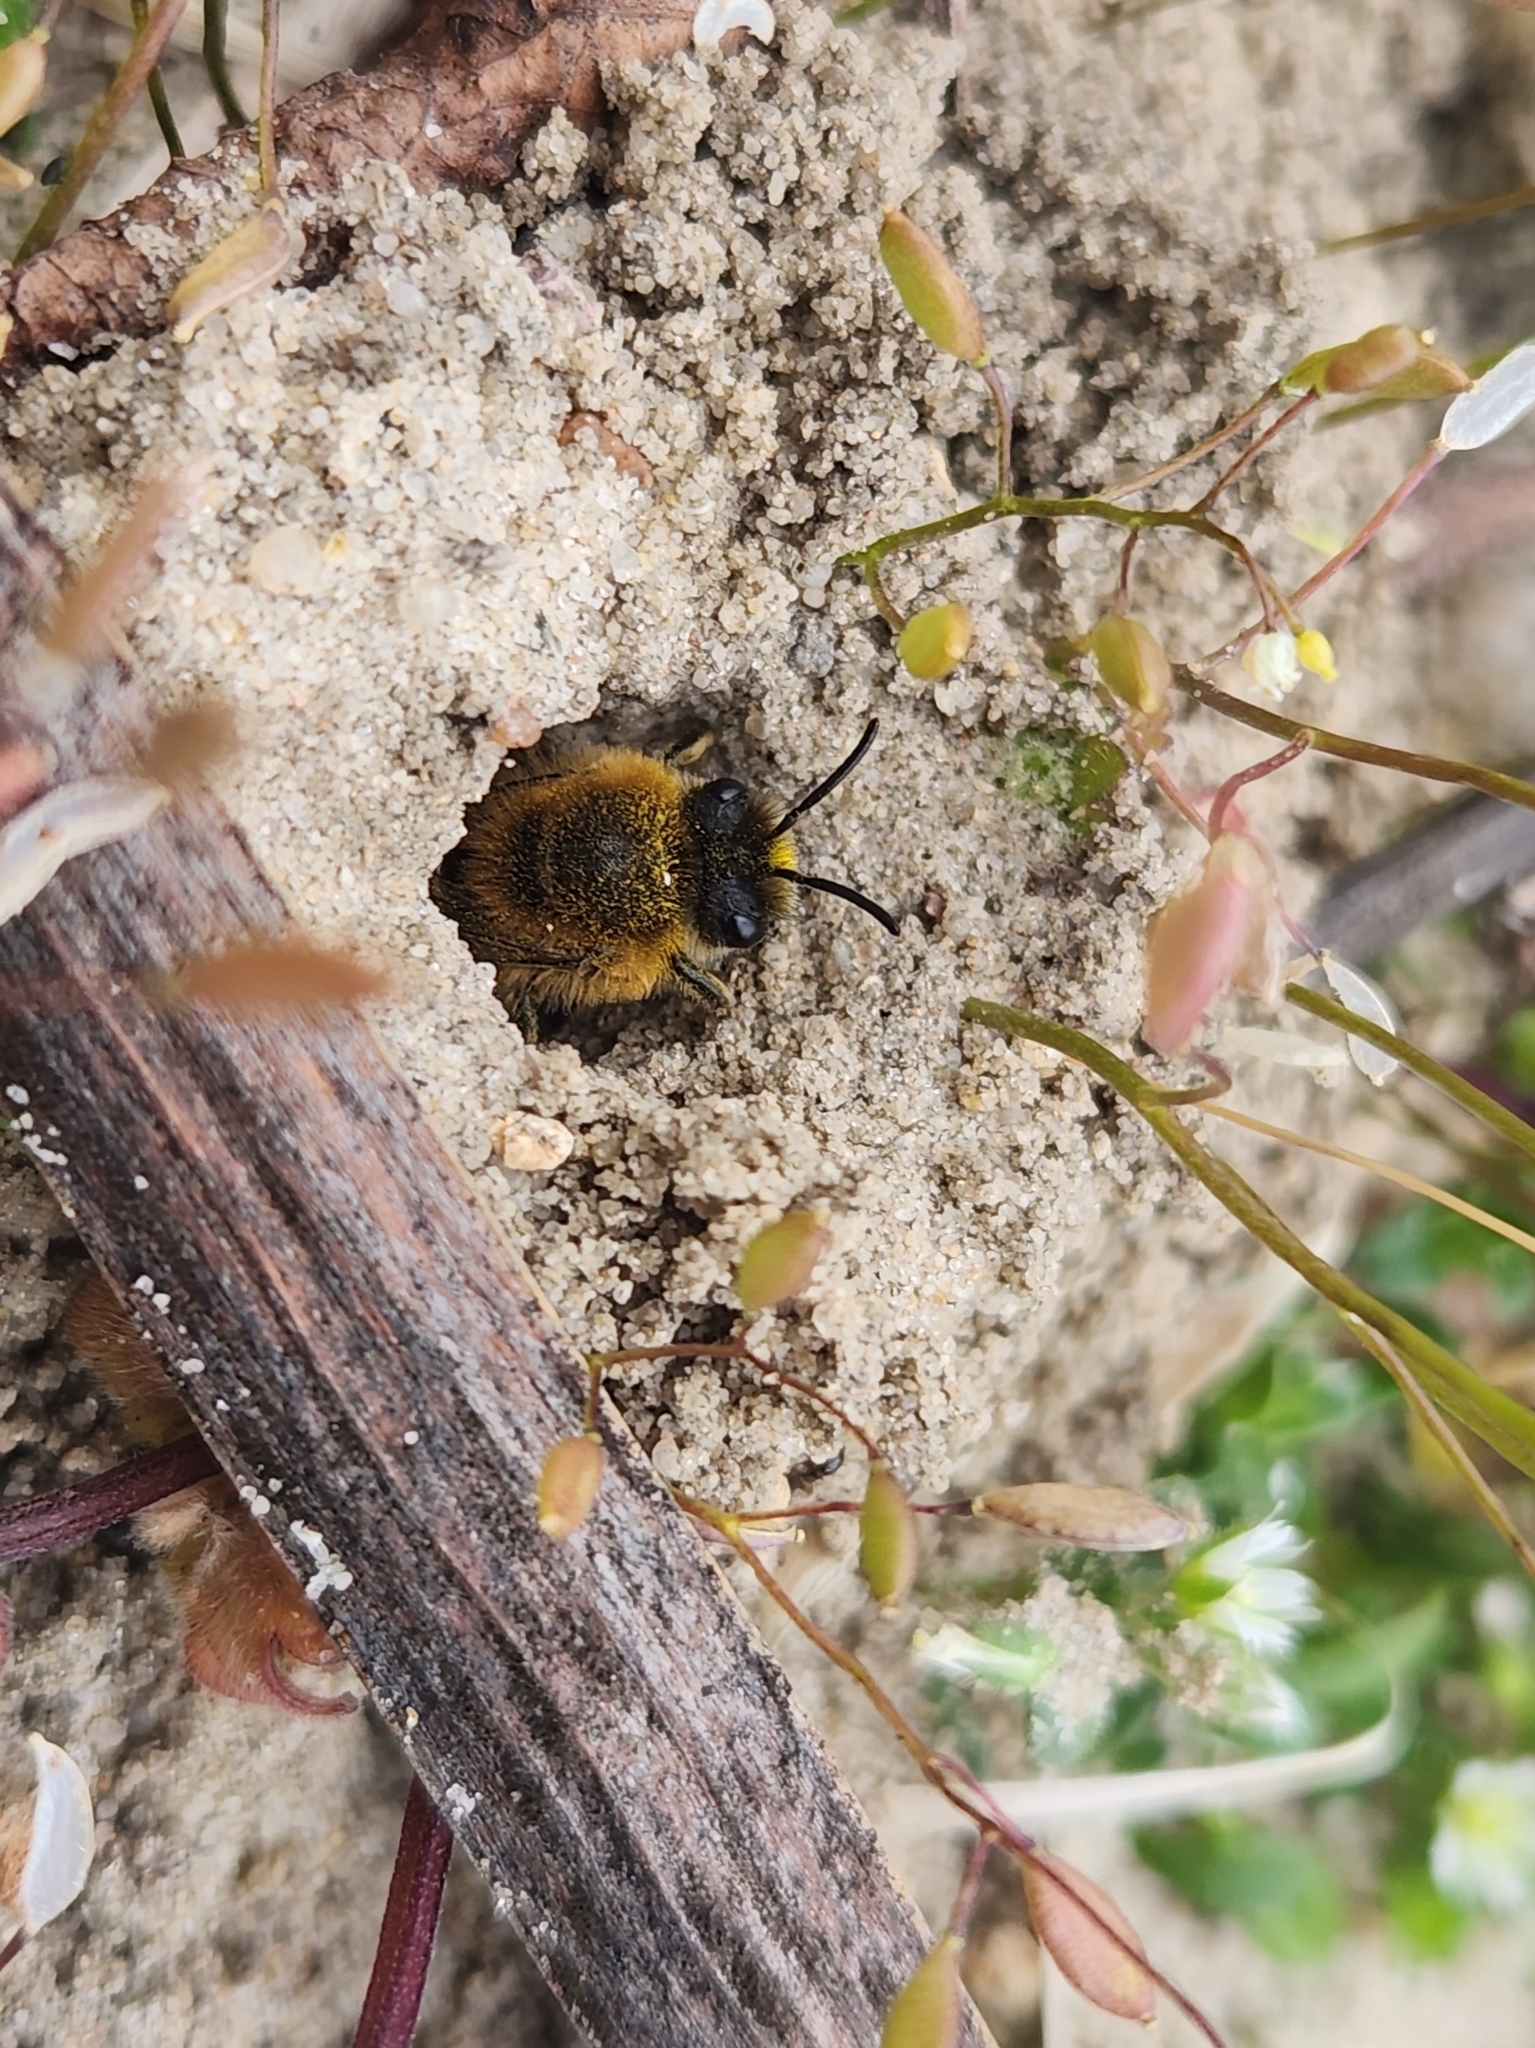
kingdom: Animalia
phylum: Arthropoda
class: Insecta
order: Hymenoptera
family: Colletidae
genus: Colletes
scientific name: Colletes cunicularius
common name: Early colletes
